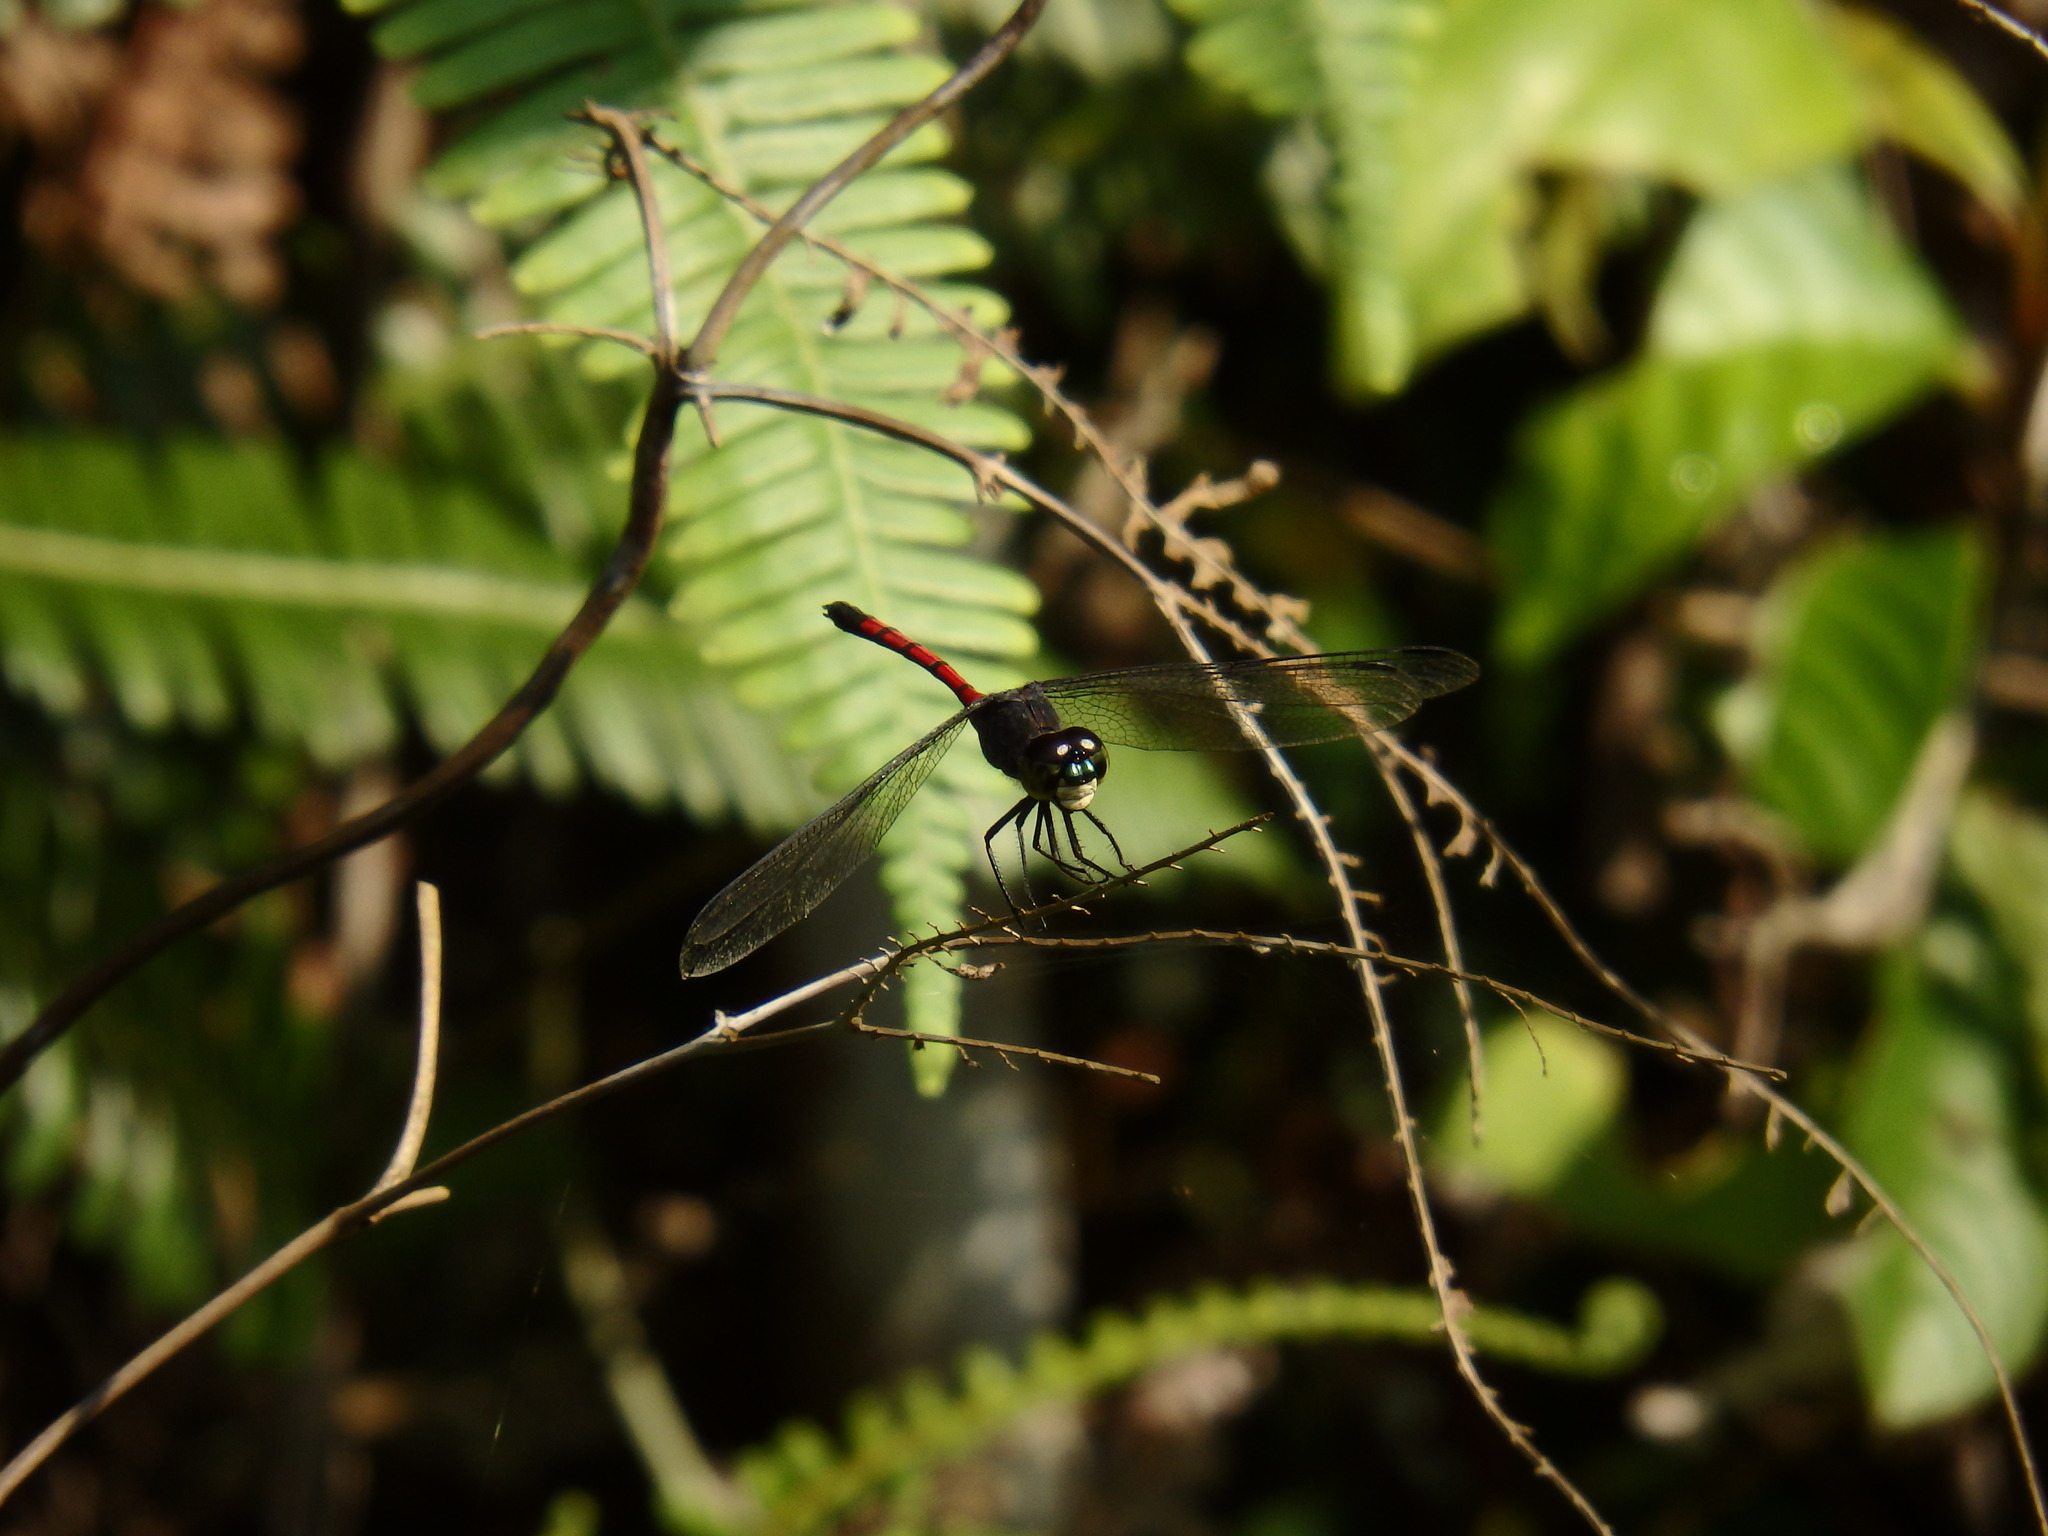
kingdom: Animalia
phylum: Arthropoda
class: Insecta
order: Odonata
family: Libellulidae
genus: Agrionoptera
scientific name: Agrionoptera insignis
